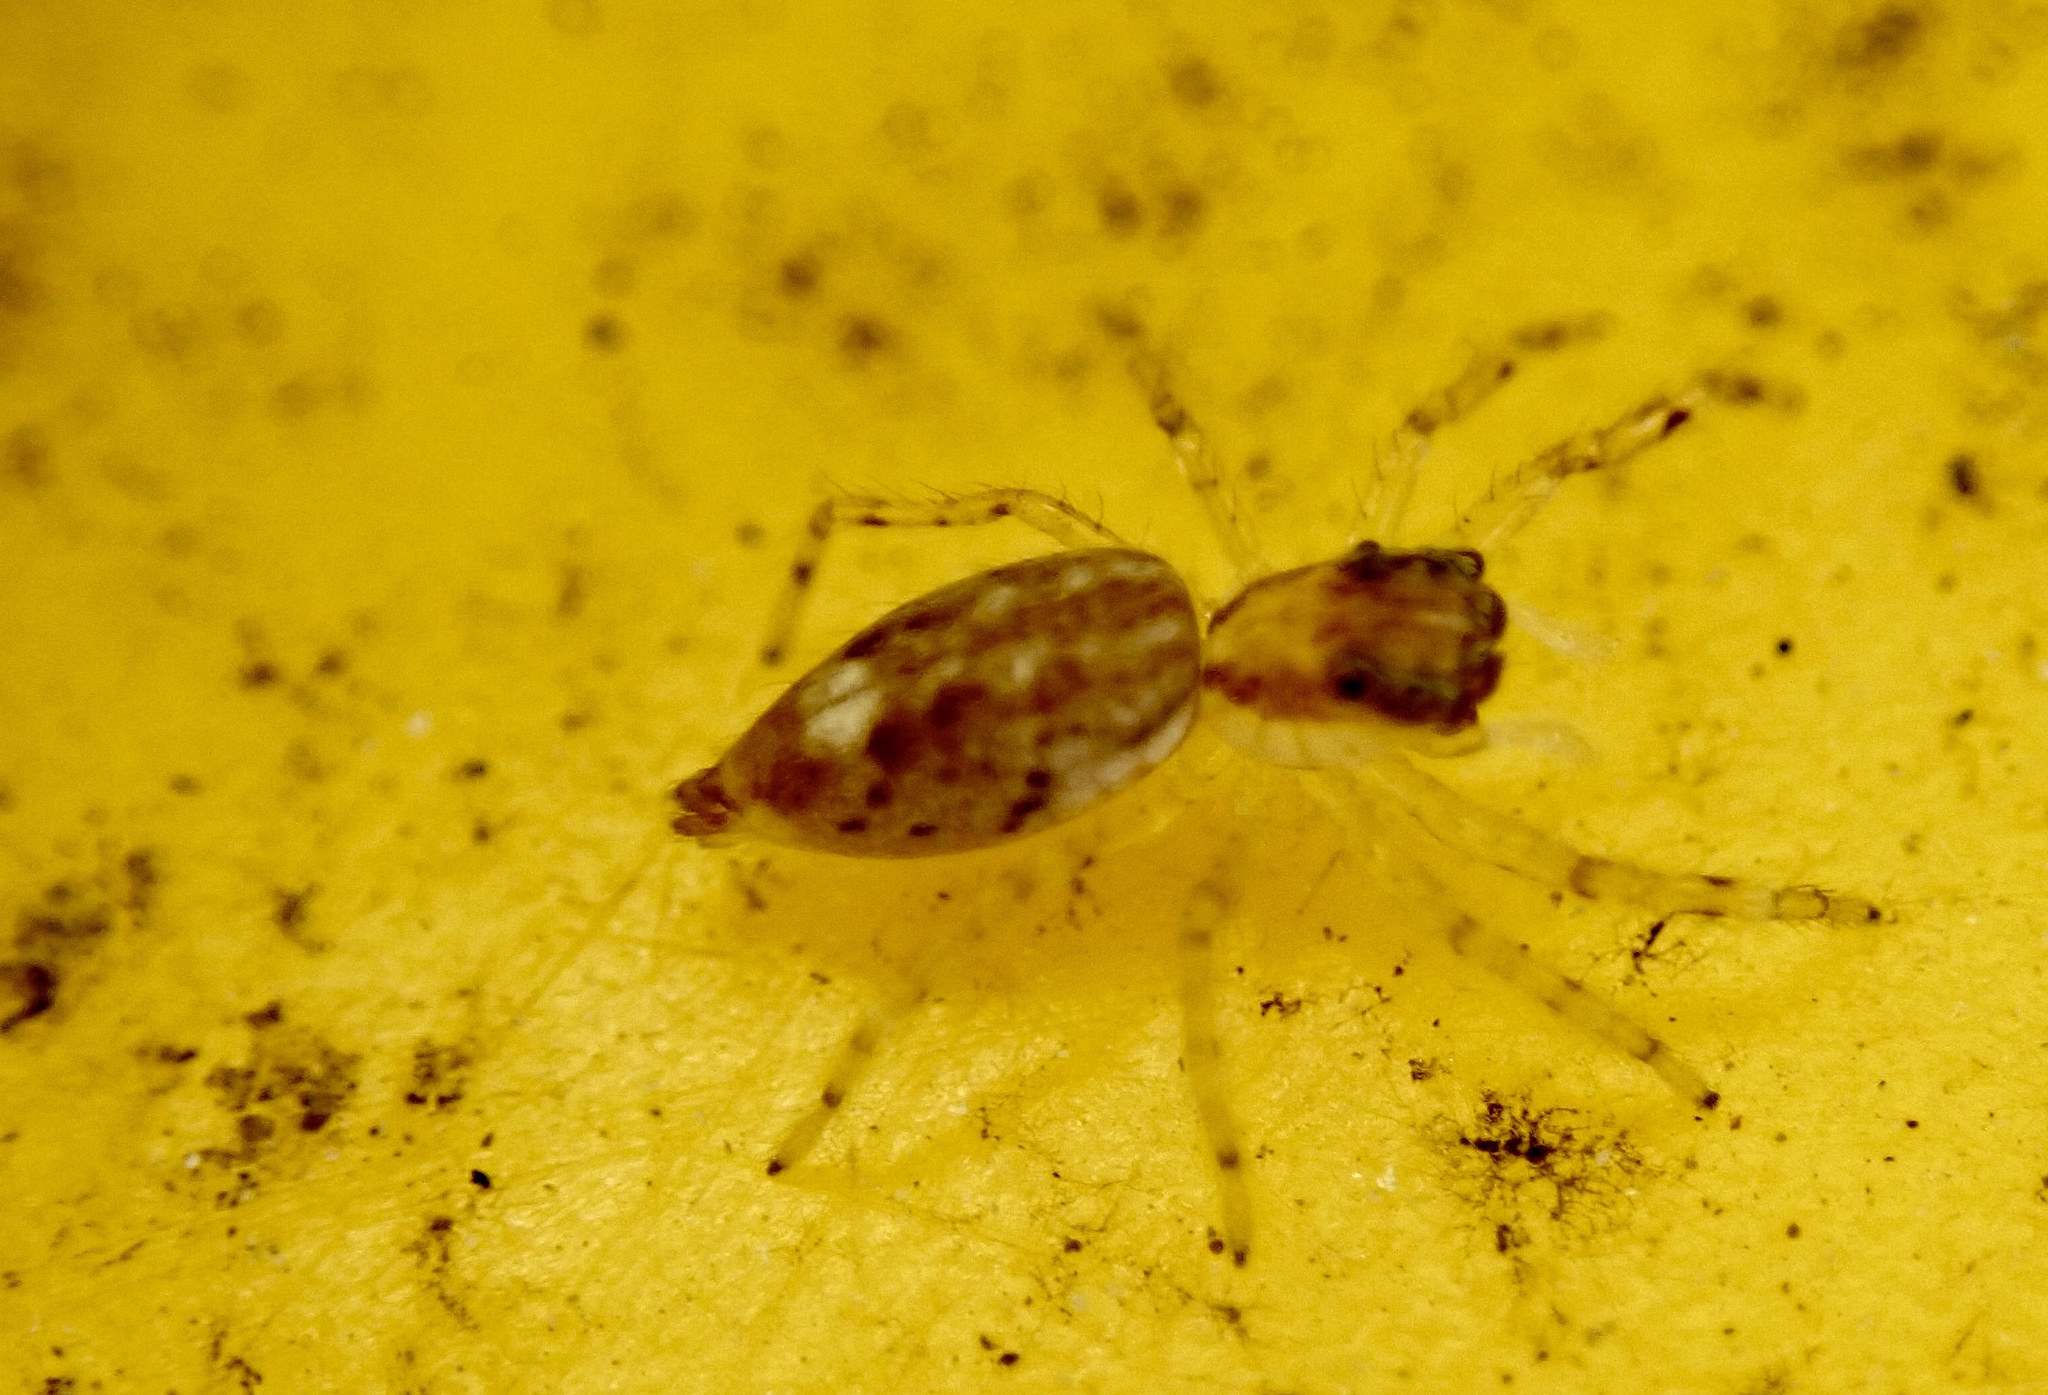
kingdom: Animalia
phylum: Arthropoda
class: Arachnida
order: Araneae
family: Salticidae
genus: Helpis
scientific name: Helpis minitabunda
